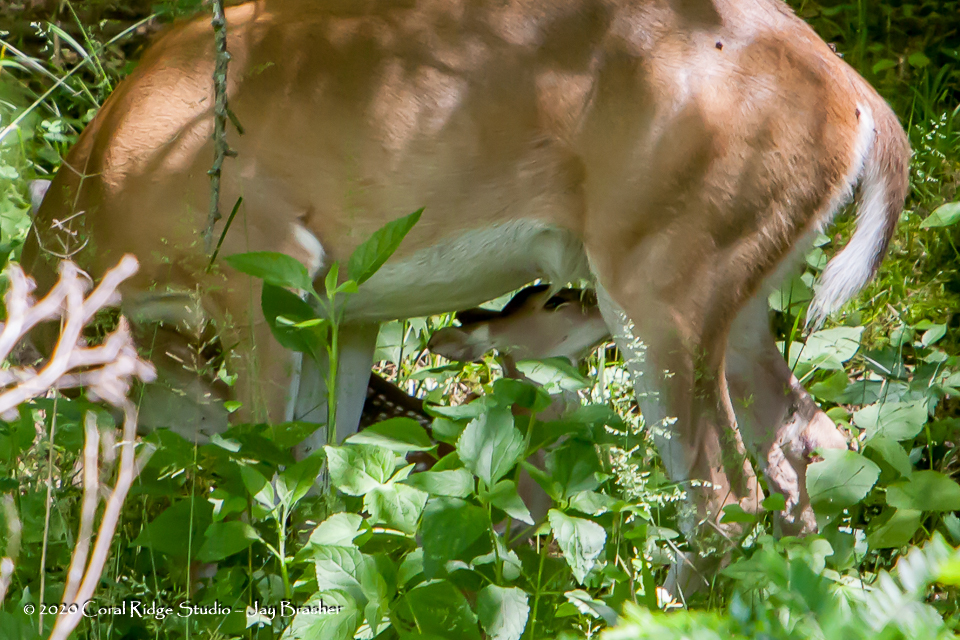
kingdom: Animalia
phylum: Chordata
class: Mammalia
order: Artiodactyla
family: Cervidae
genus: Odocoileus
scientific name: Odocoileus virginianus
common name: White-tailed deer
